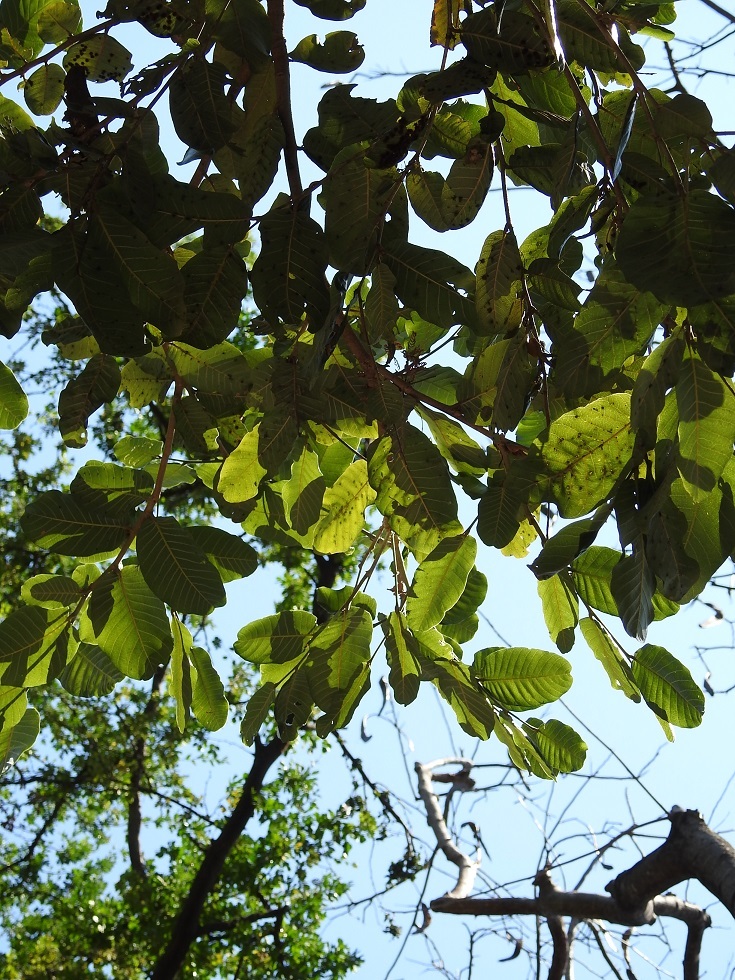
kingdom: Plantae
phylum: Tracheophyta
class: Magnoliopsida
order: Malpighiales
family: Chrysobalanaceae
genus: Microdesmia
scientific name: Microdesmia arborea
